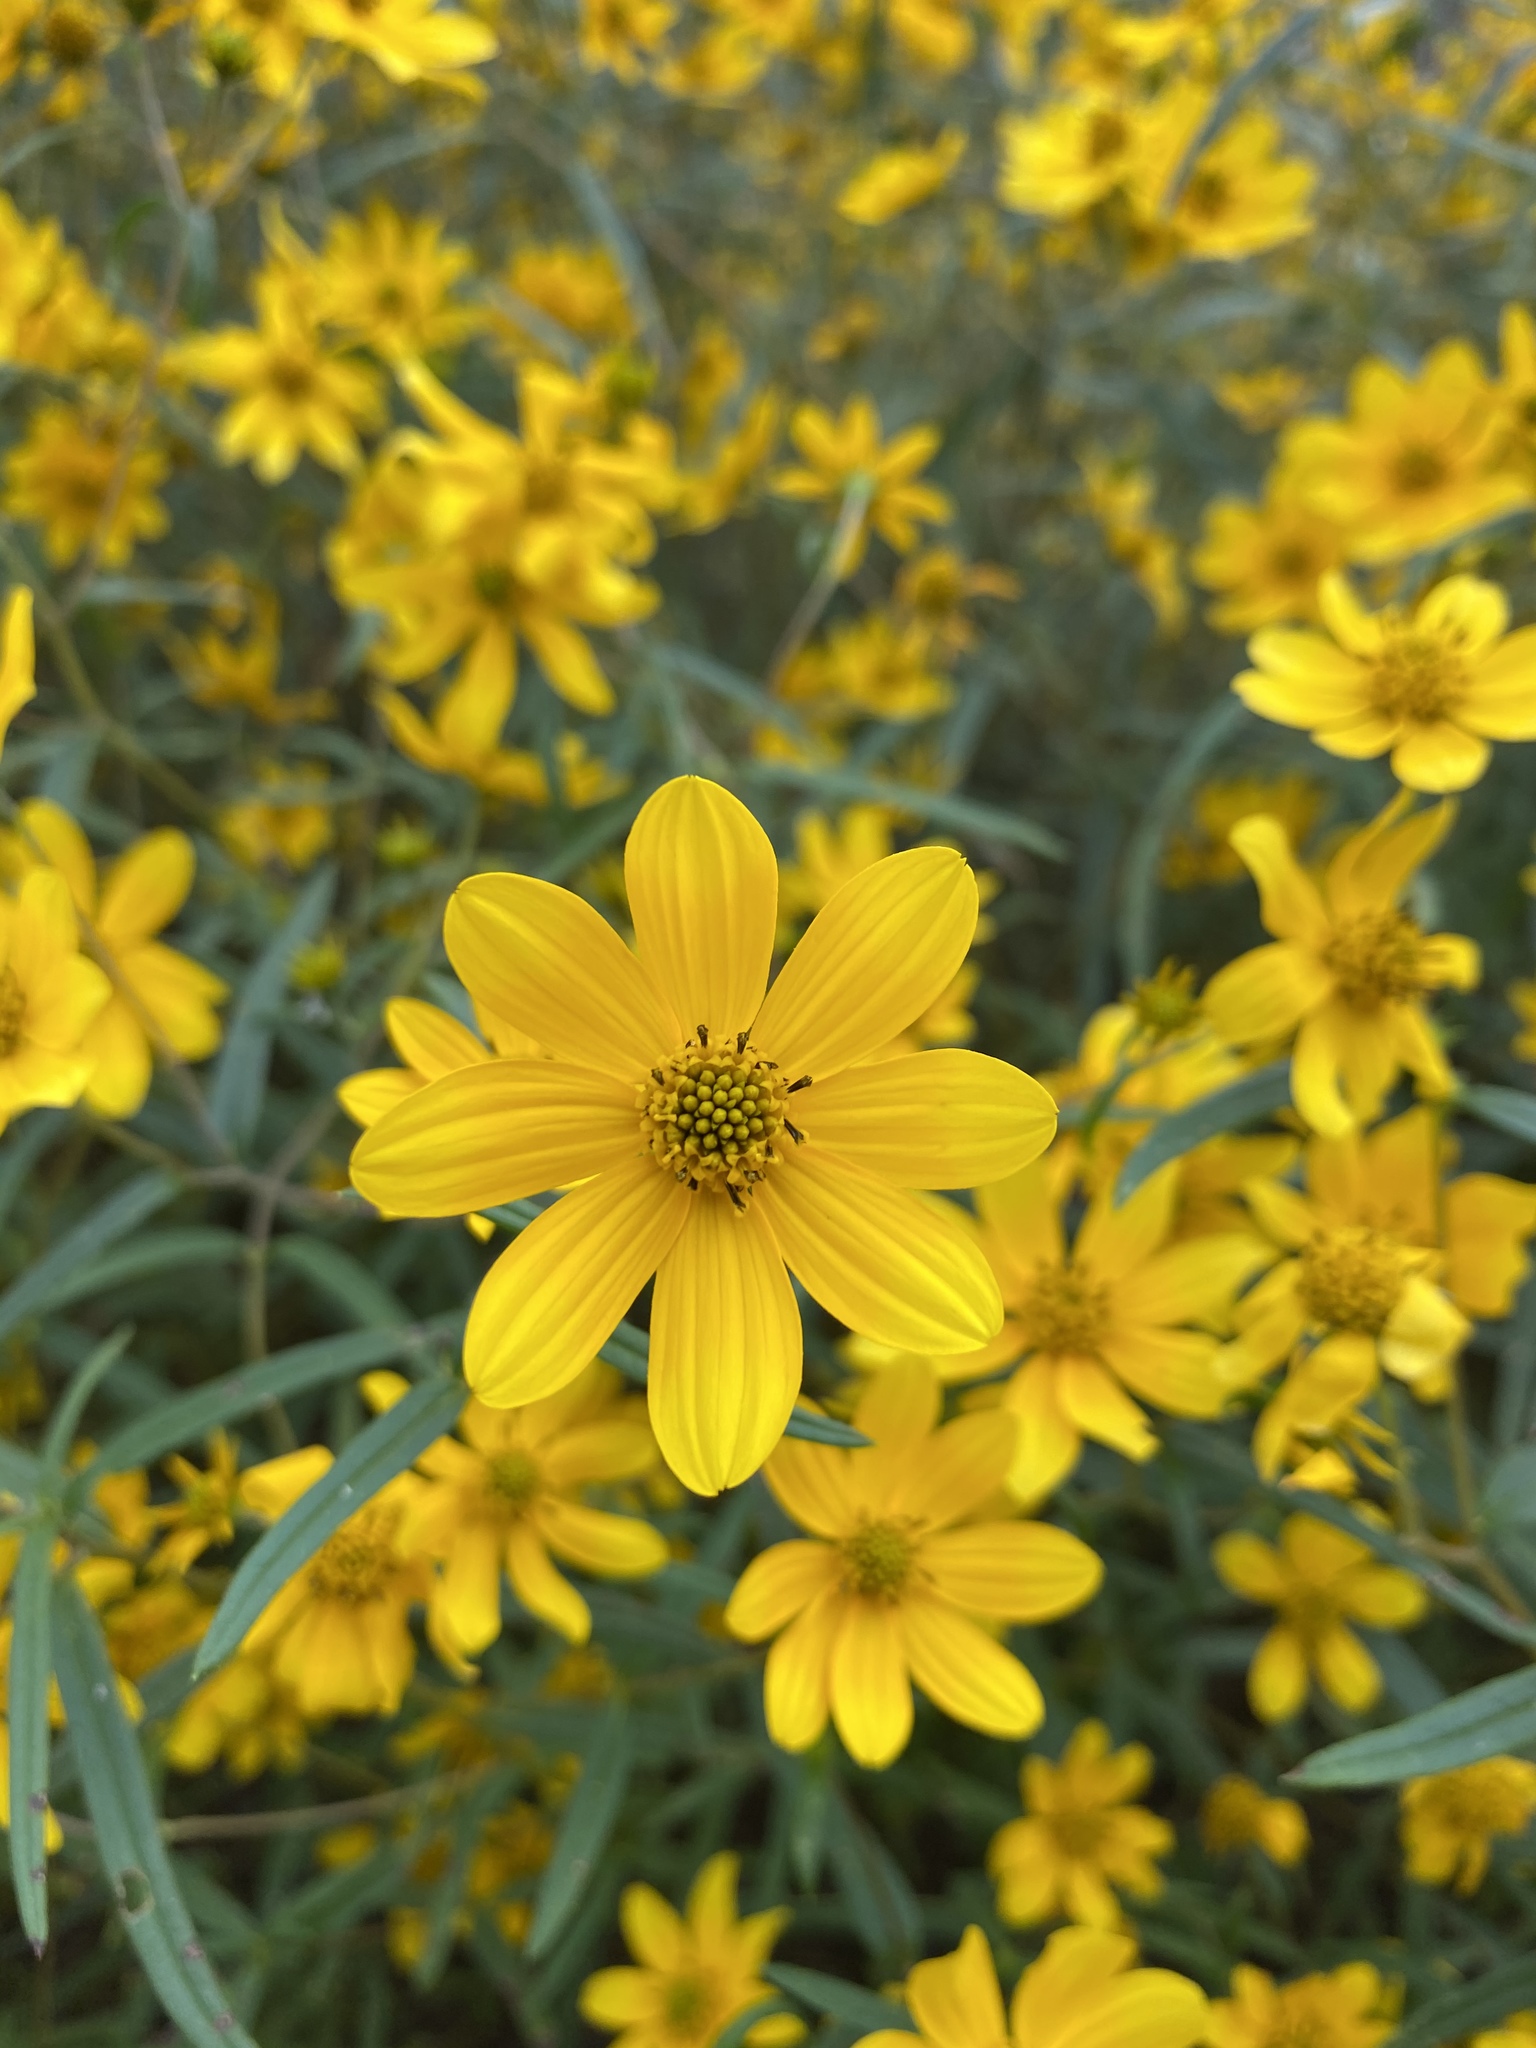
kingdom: Plantae
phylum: Tracheophyta
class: Magnoliopsida
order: Asterales
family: Asteraceae
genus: Helianthus
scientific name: Helianthus porteri
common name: Porter's sunflower
